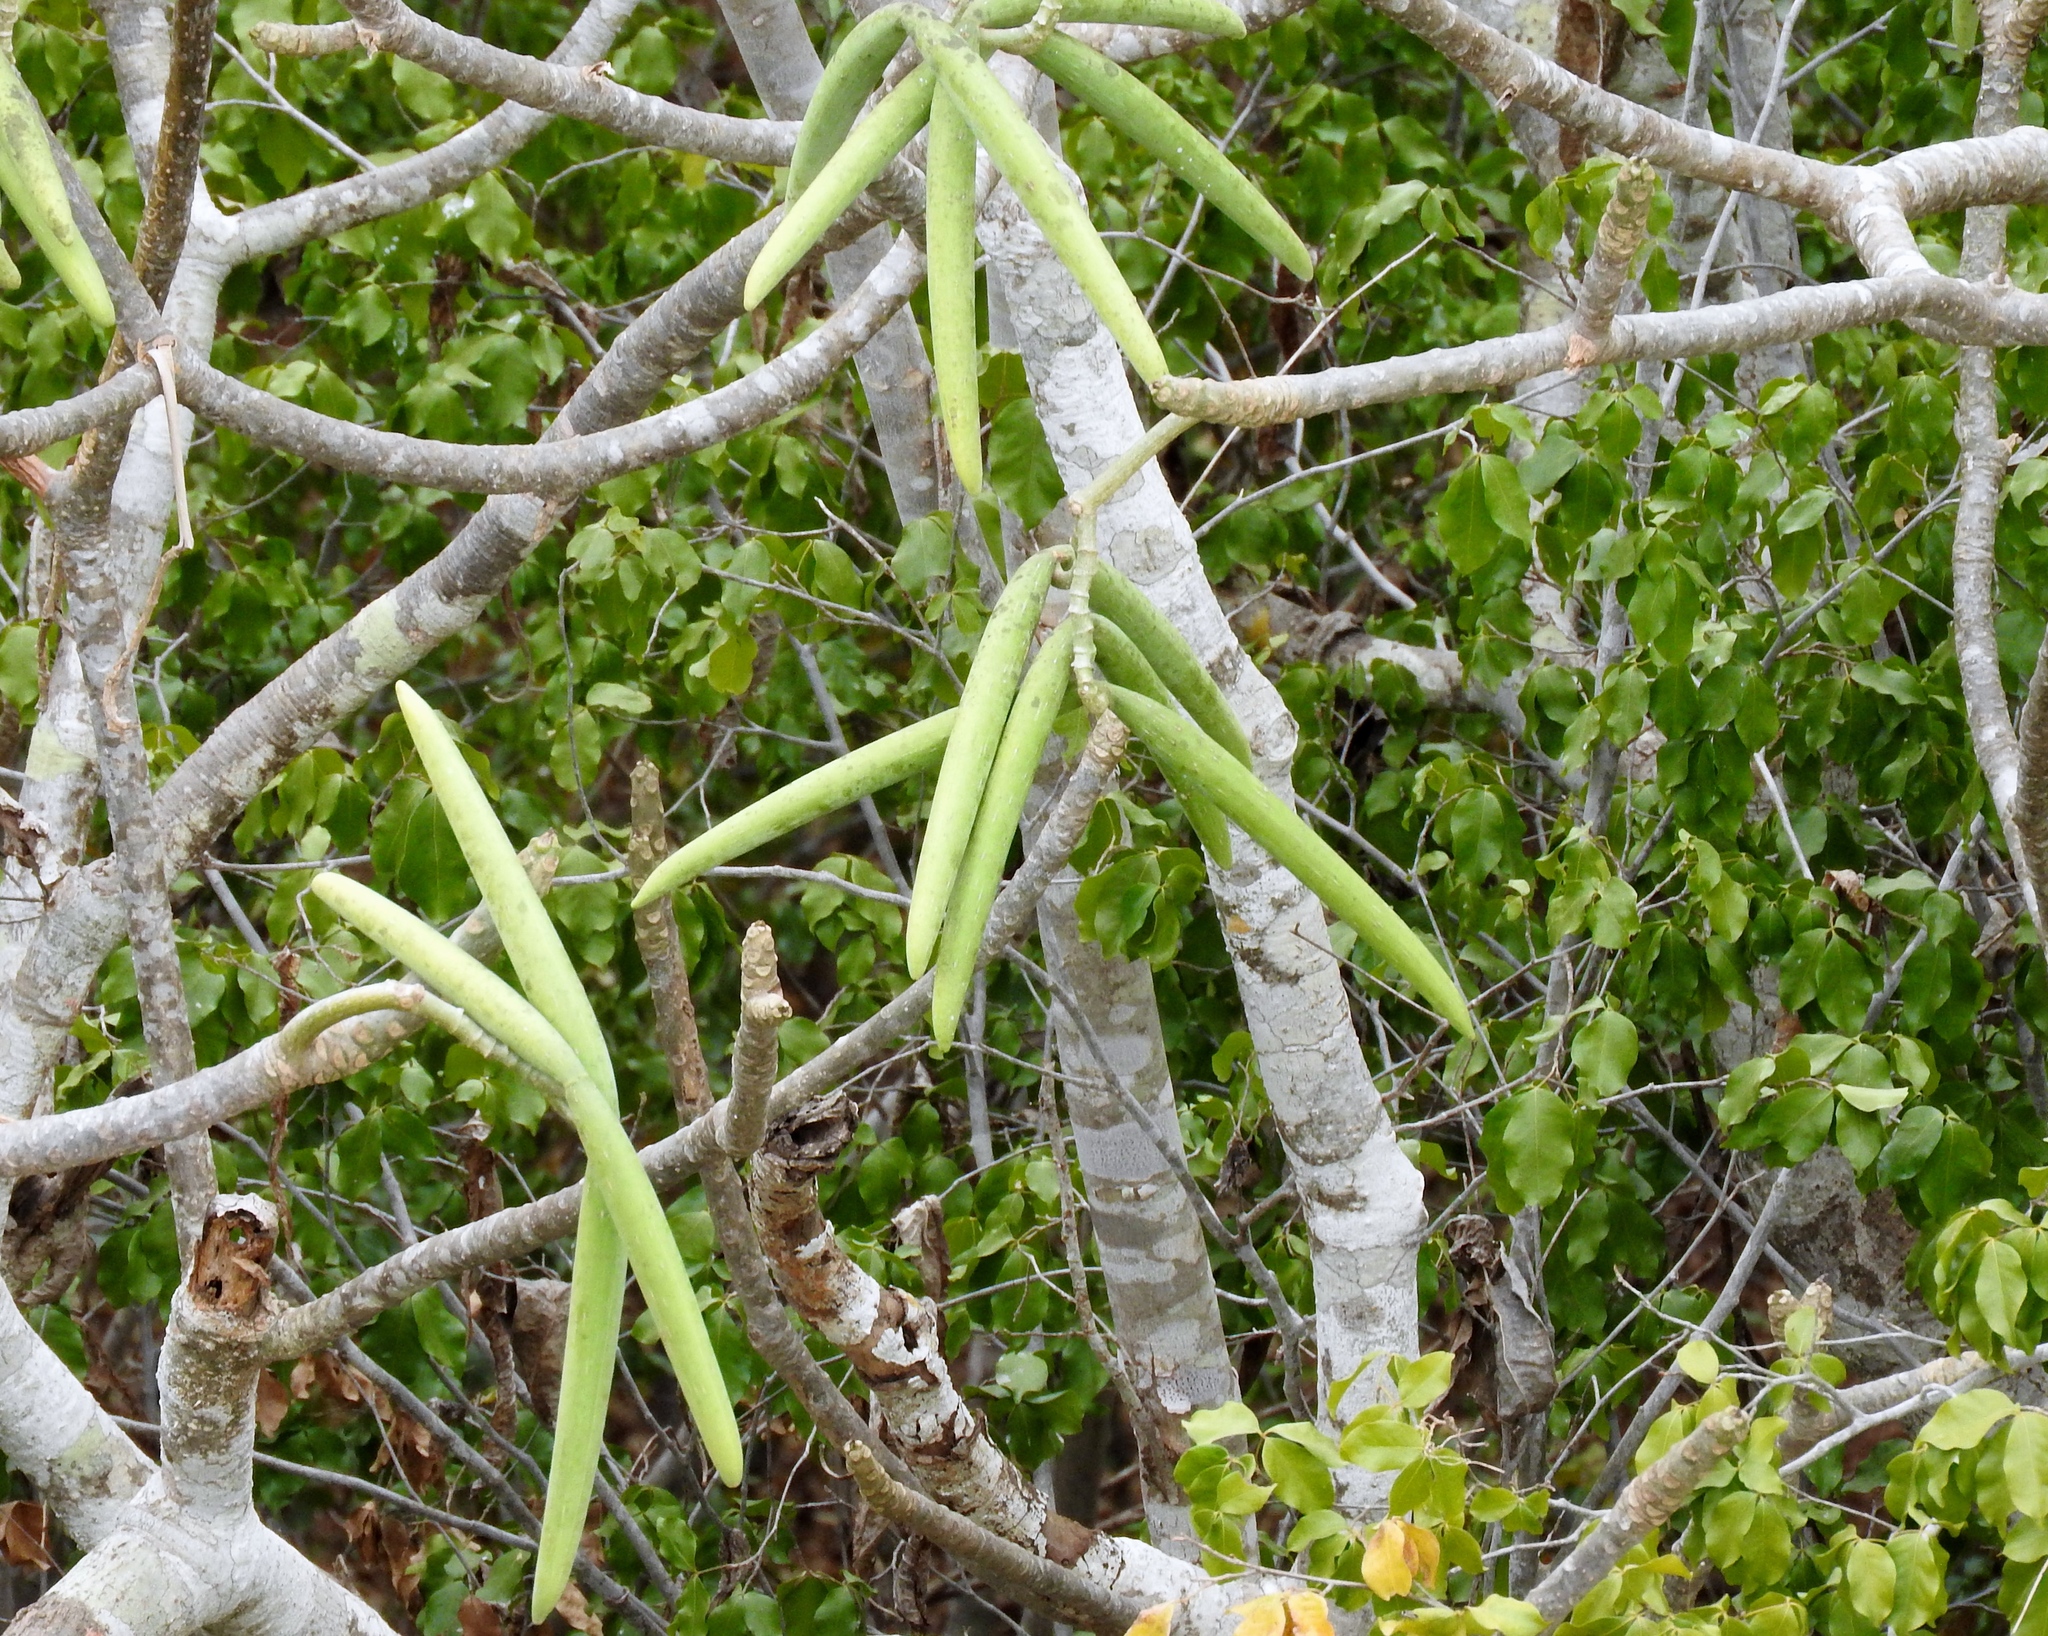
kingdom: Plantae
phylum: Tracheophyta
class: Magnoliopsida
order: Gentianales
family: Apocynaceae
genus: Plumeria
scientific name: Plumeria rubra
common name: Pagoda-tree
